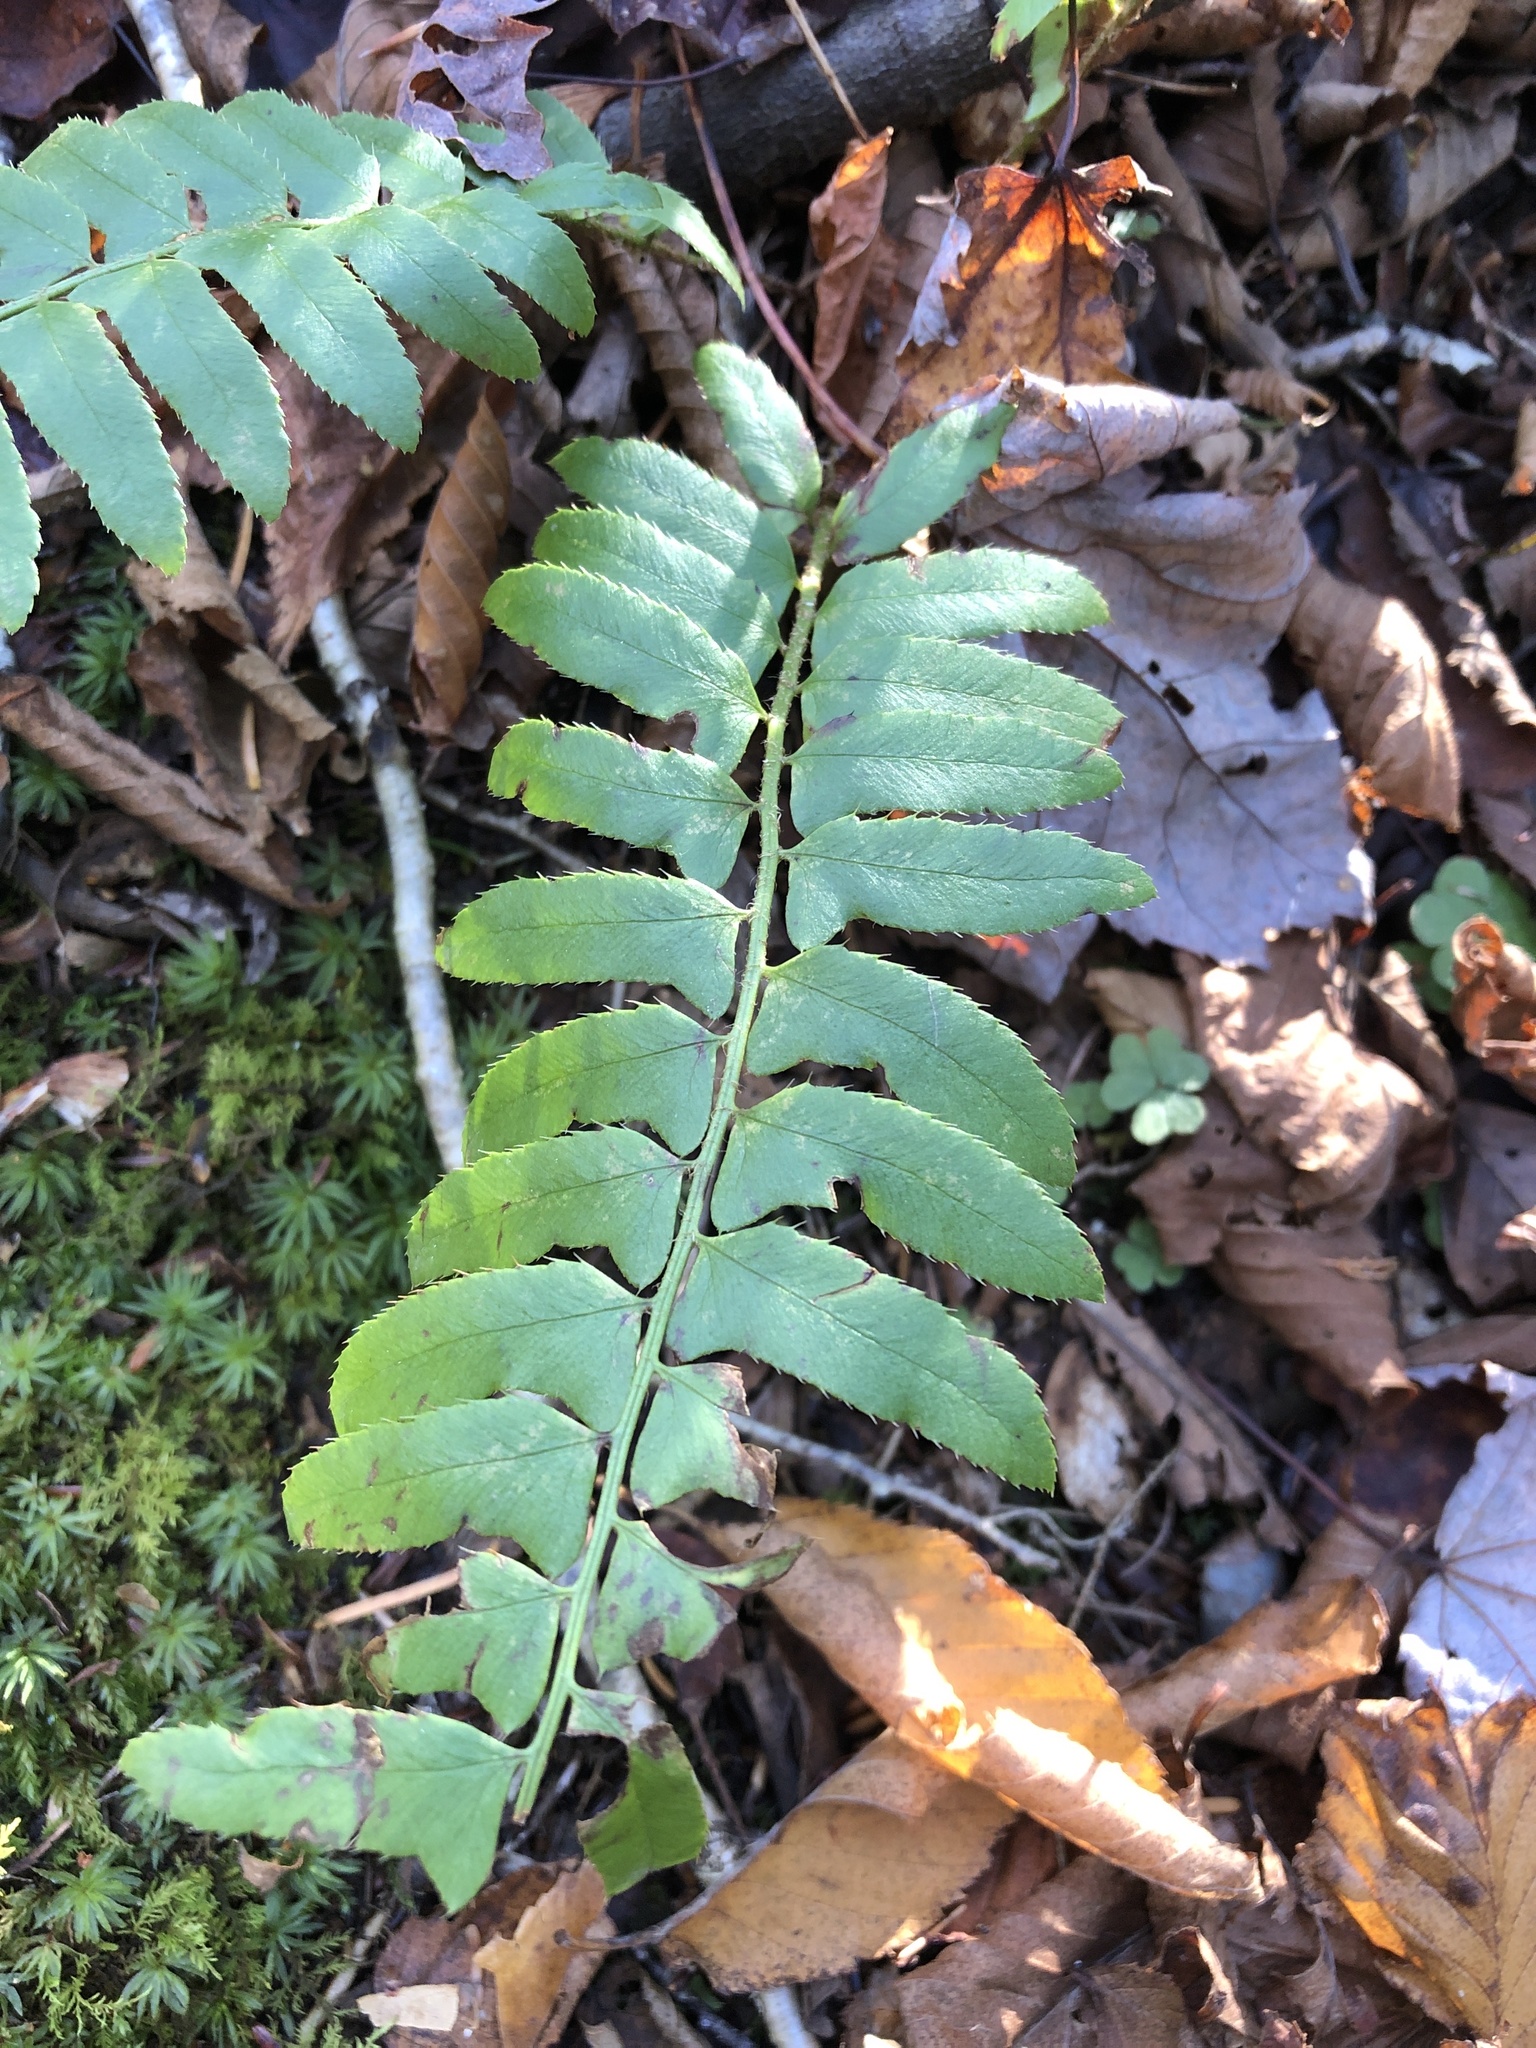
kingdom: Plantae
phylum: Tracheophyta
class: Polypodiopsida
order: Polypodiales
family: Dryopteridaceae
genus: Polystichum
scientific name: Polystichum acrostichoides
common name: Christmas fern
